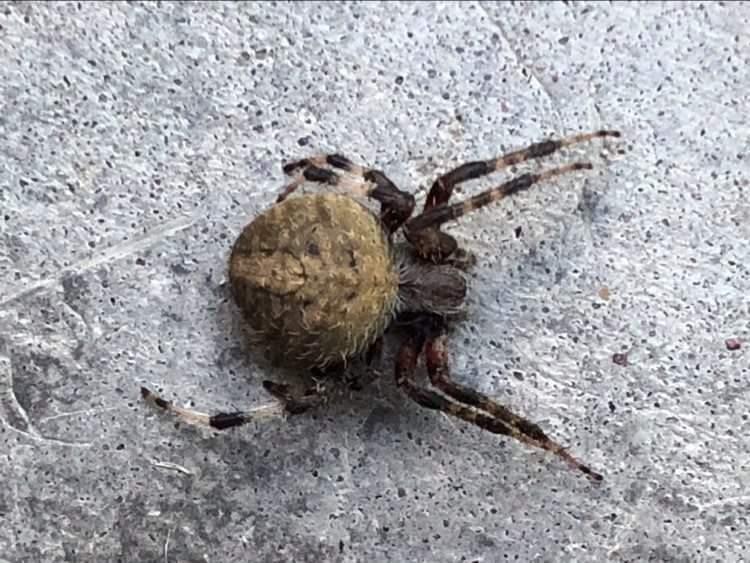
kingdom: Animalia
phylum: Arthropoda
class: Arachnida
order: Araneae
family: Araneidae
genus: Neoscona
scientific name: Neoscona crucifera
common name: Spotted orbweaver
